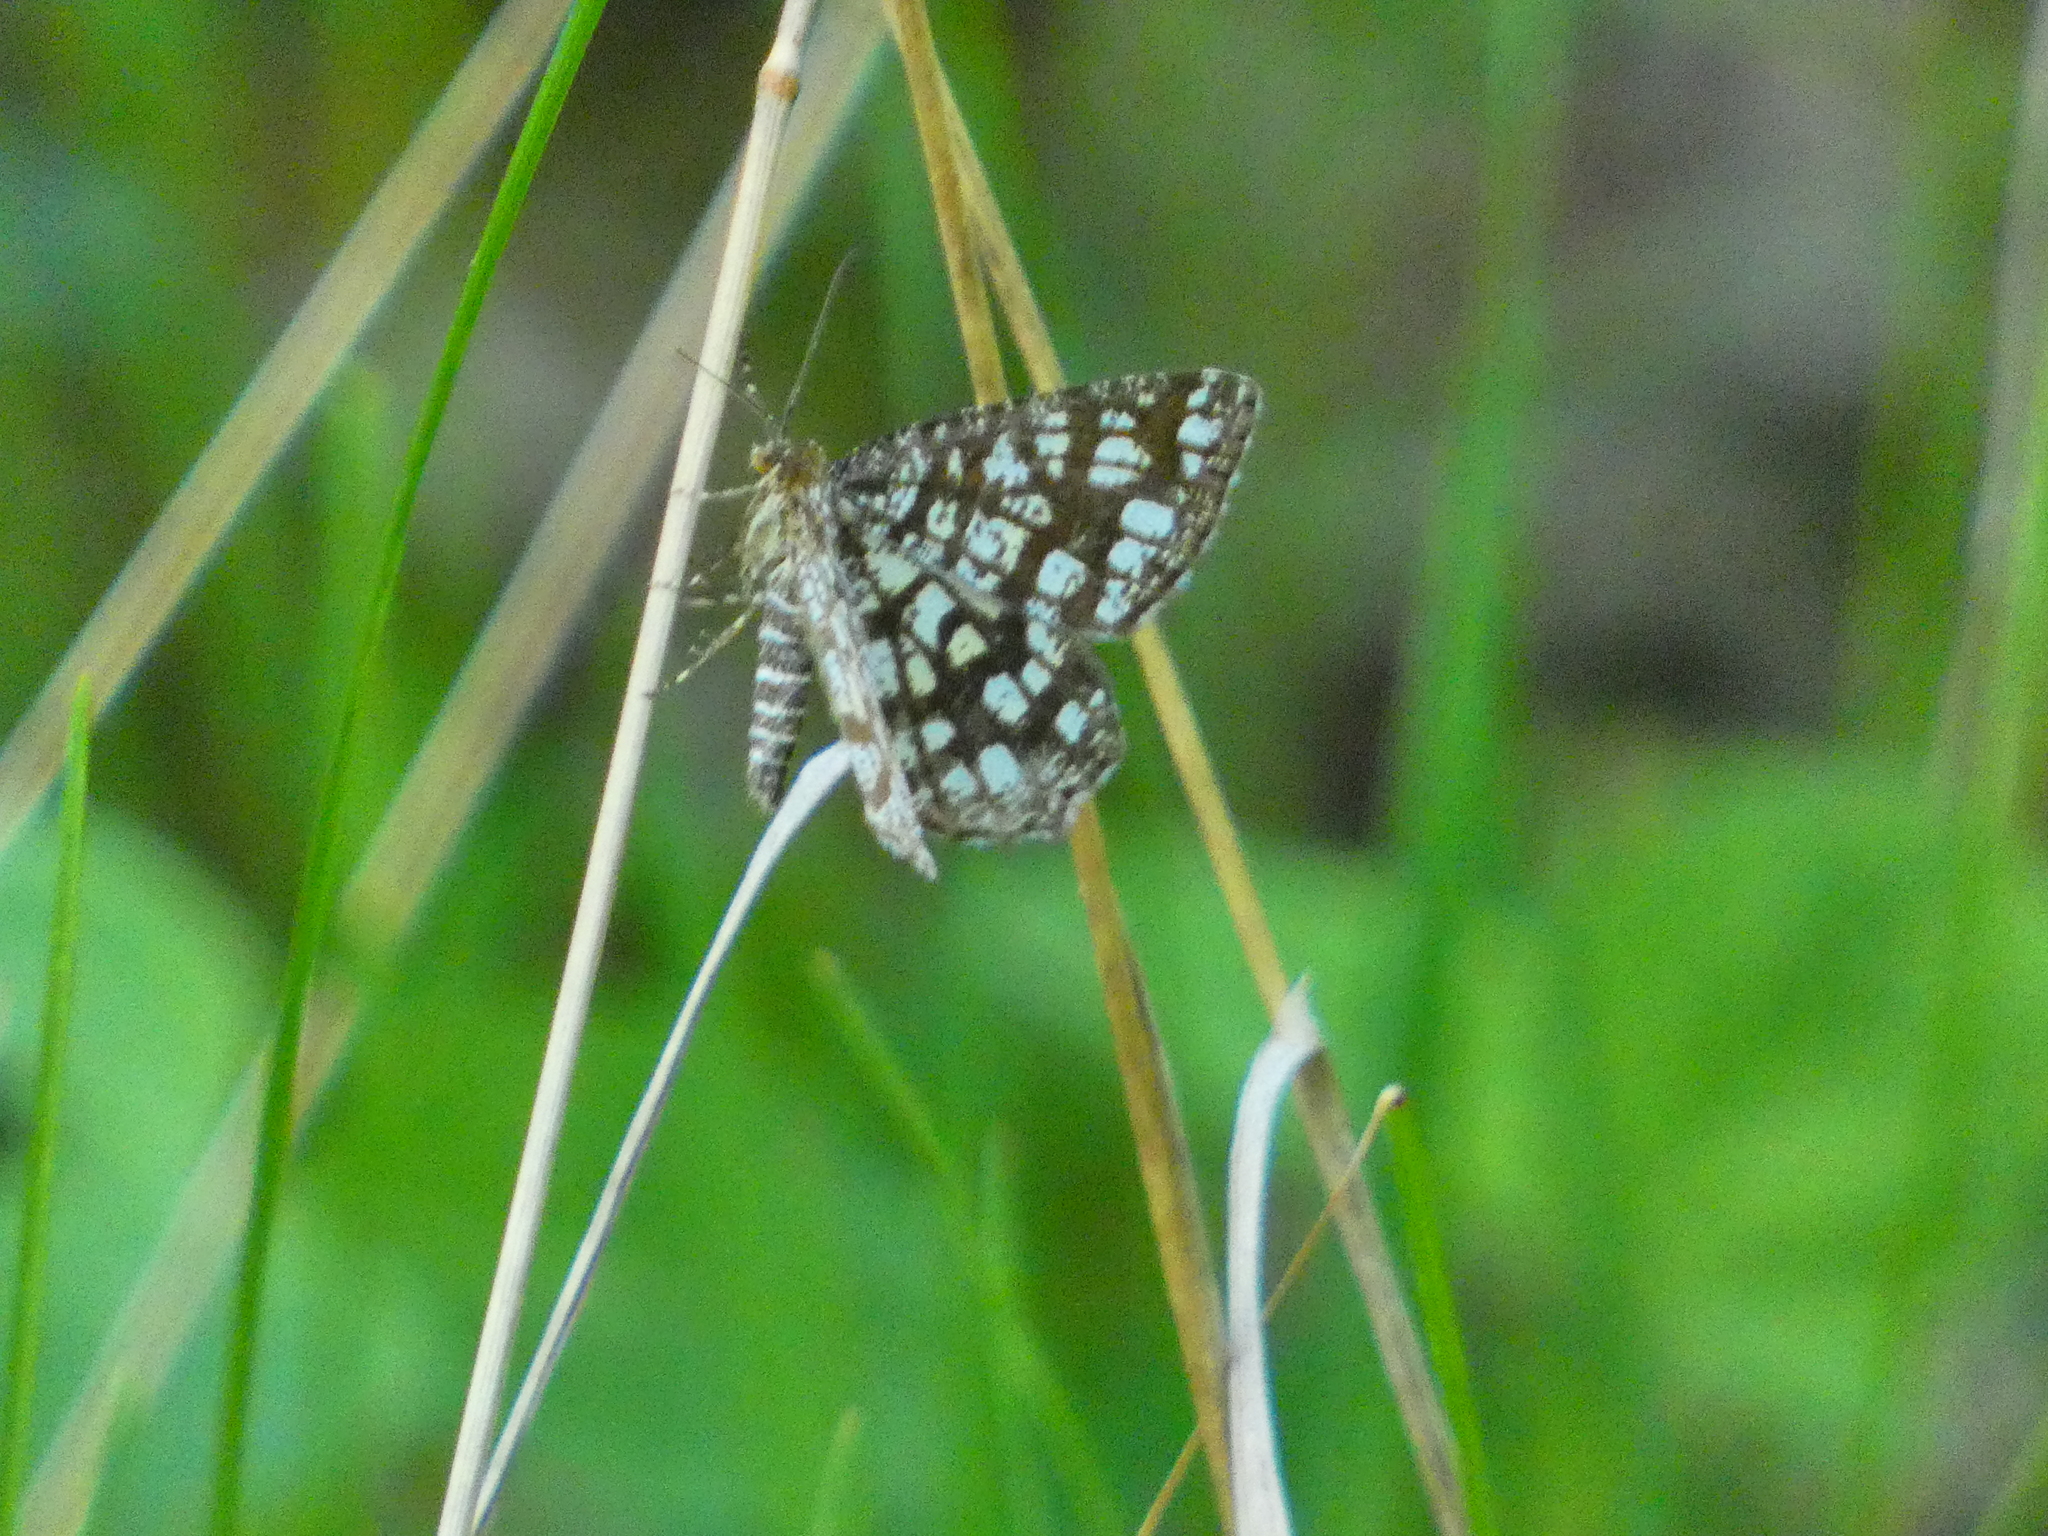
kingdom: Animalia
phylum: Arthropoda
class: Insecta
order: Lepidoptera
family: Geometridae
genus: Chiasmia
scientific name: Chiasmia clathrata
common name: Latticed heath
